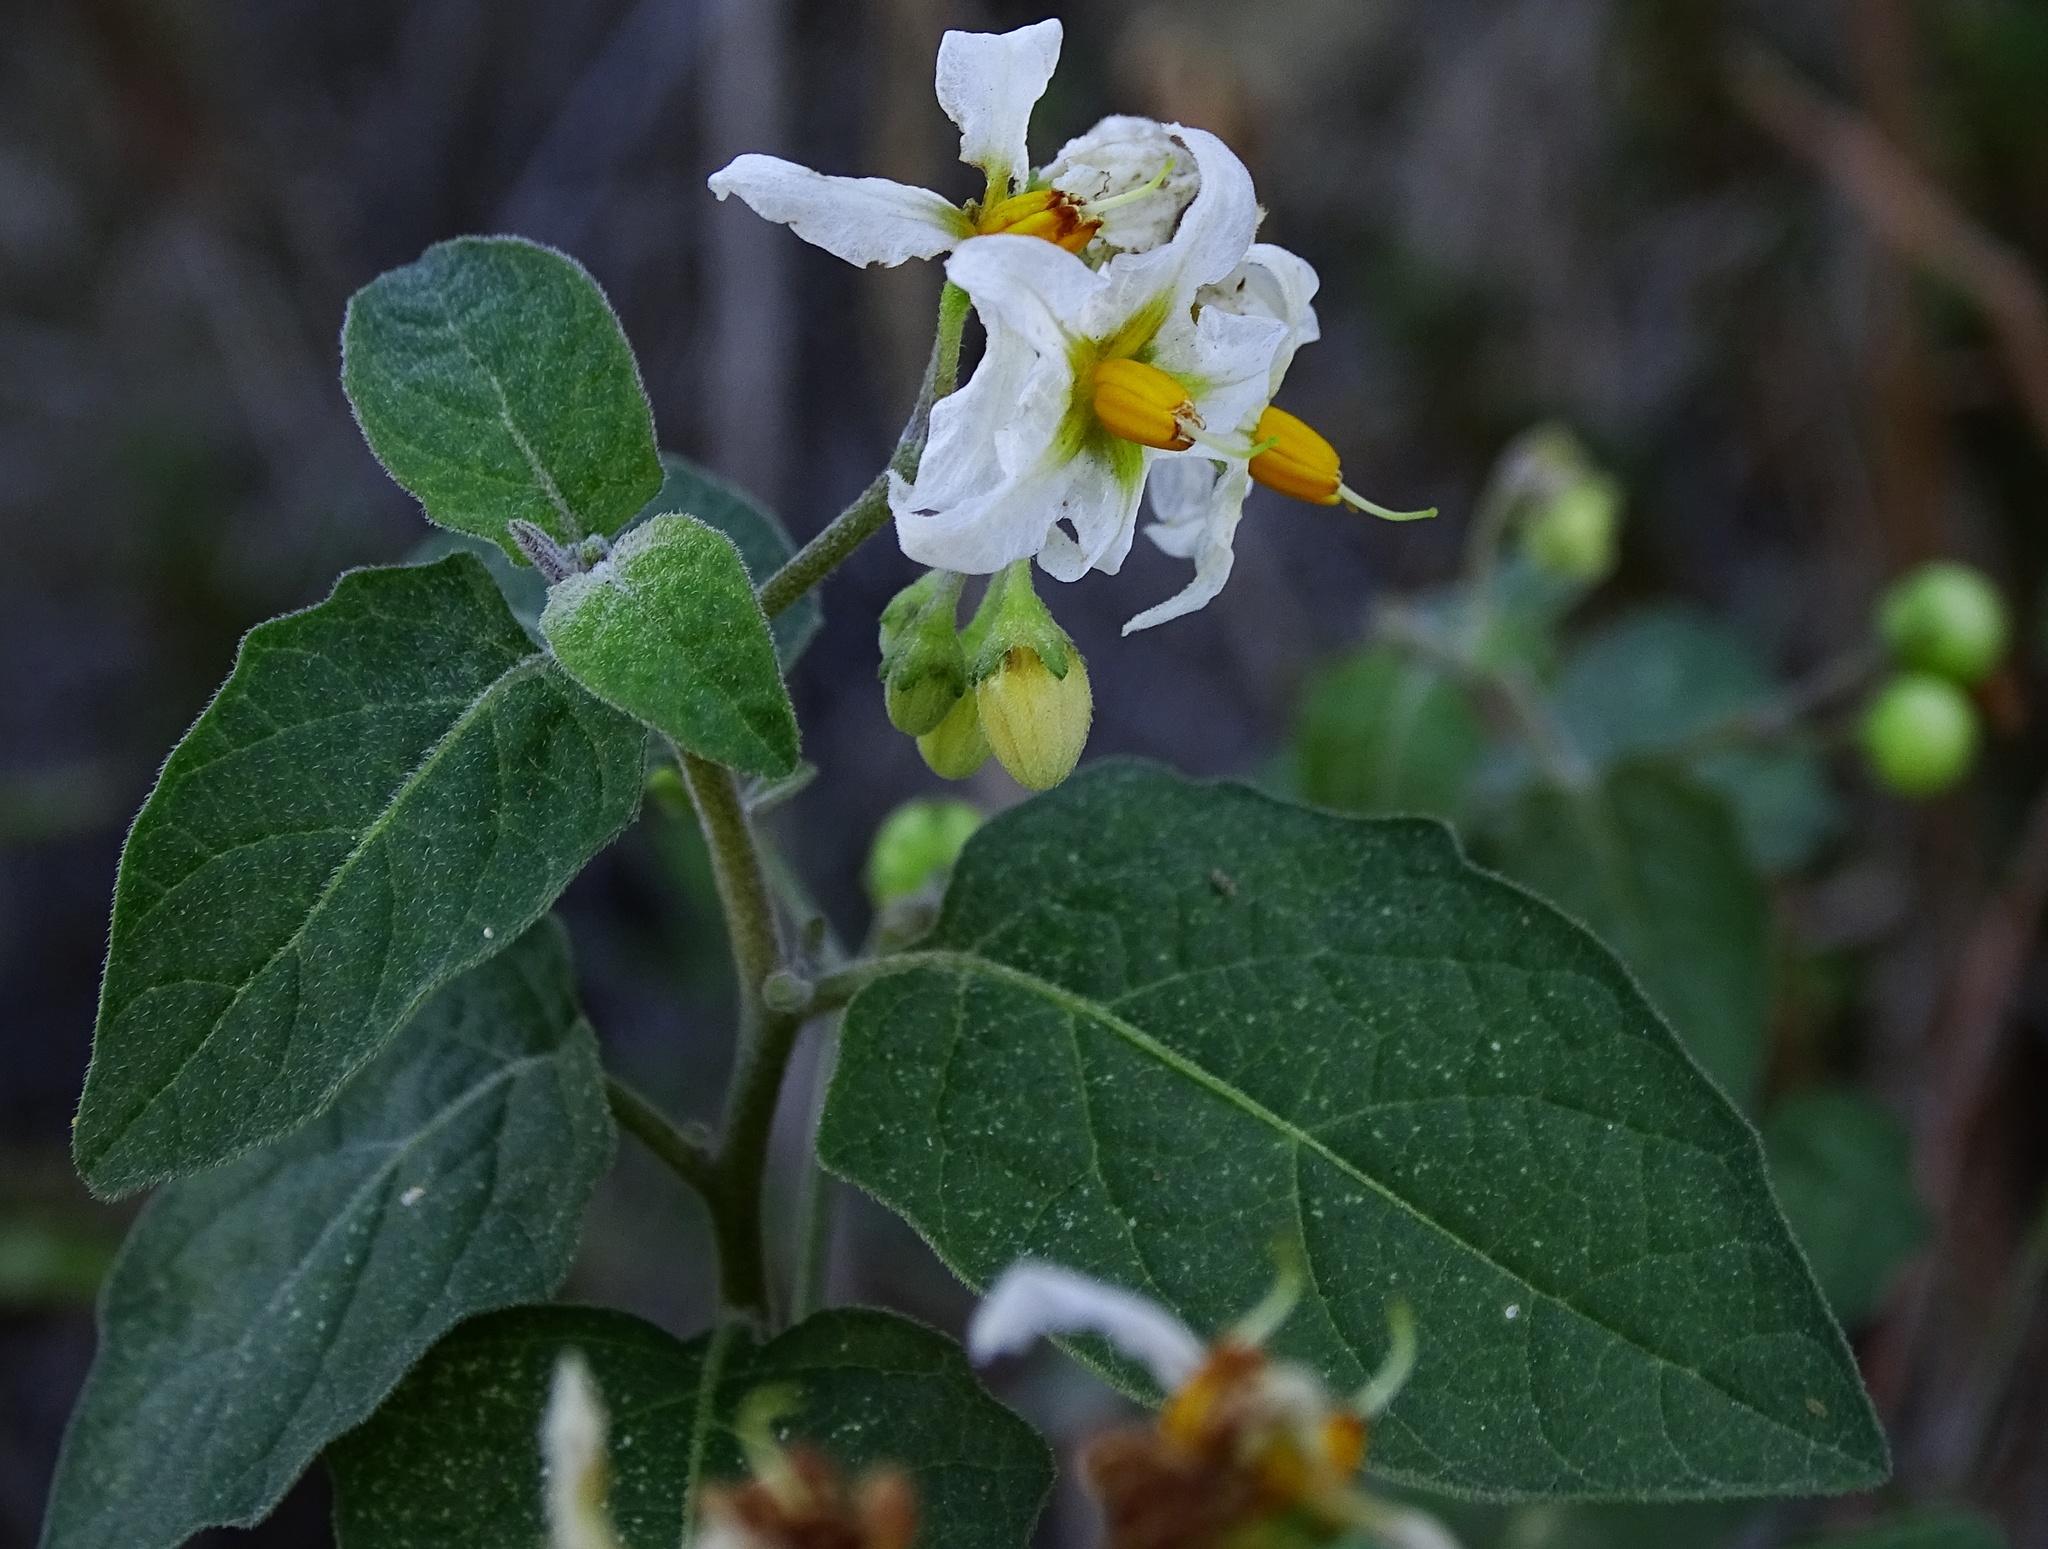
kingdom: Plantae
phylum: Tracheophyta
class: Magnoliopsida
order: Solanales
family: Solanaceae
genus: Solanum
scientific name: Solanum douglasii
